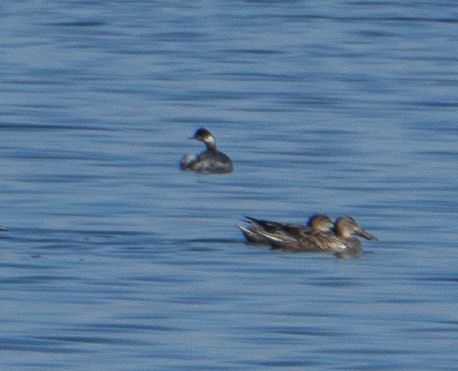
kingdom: Animalia
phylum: Chordata
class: Aves
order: Podicipediformes
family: Podicipedidae
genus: Podiceps
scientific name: Podiceps nigricollis
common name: Black-necked grebe
